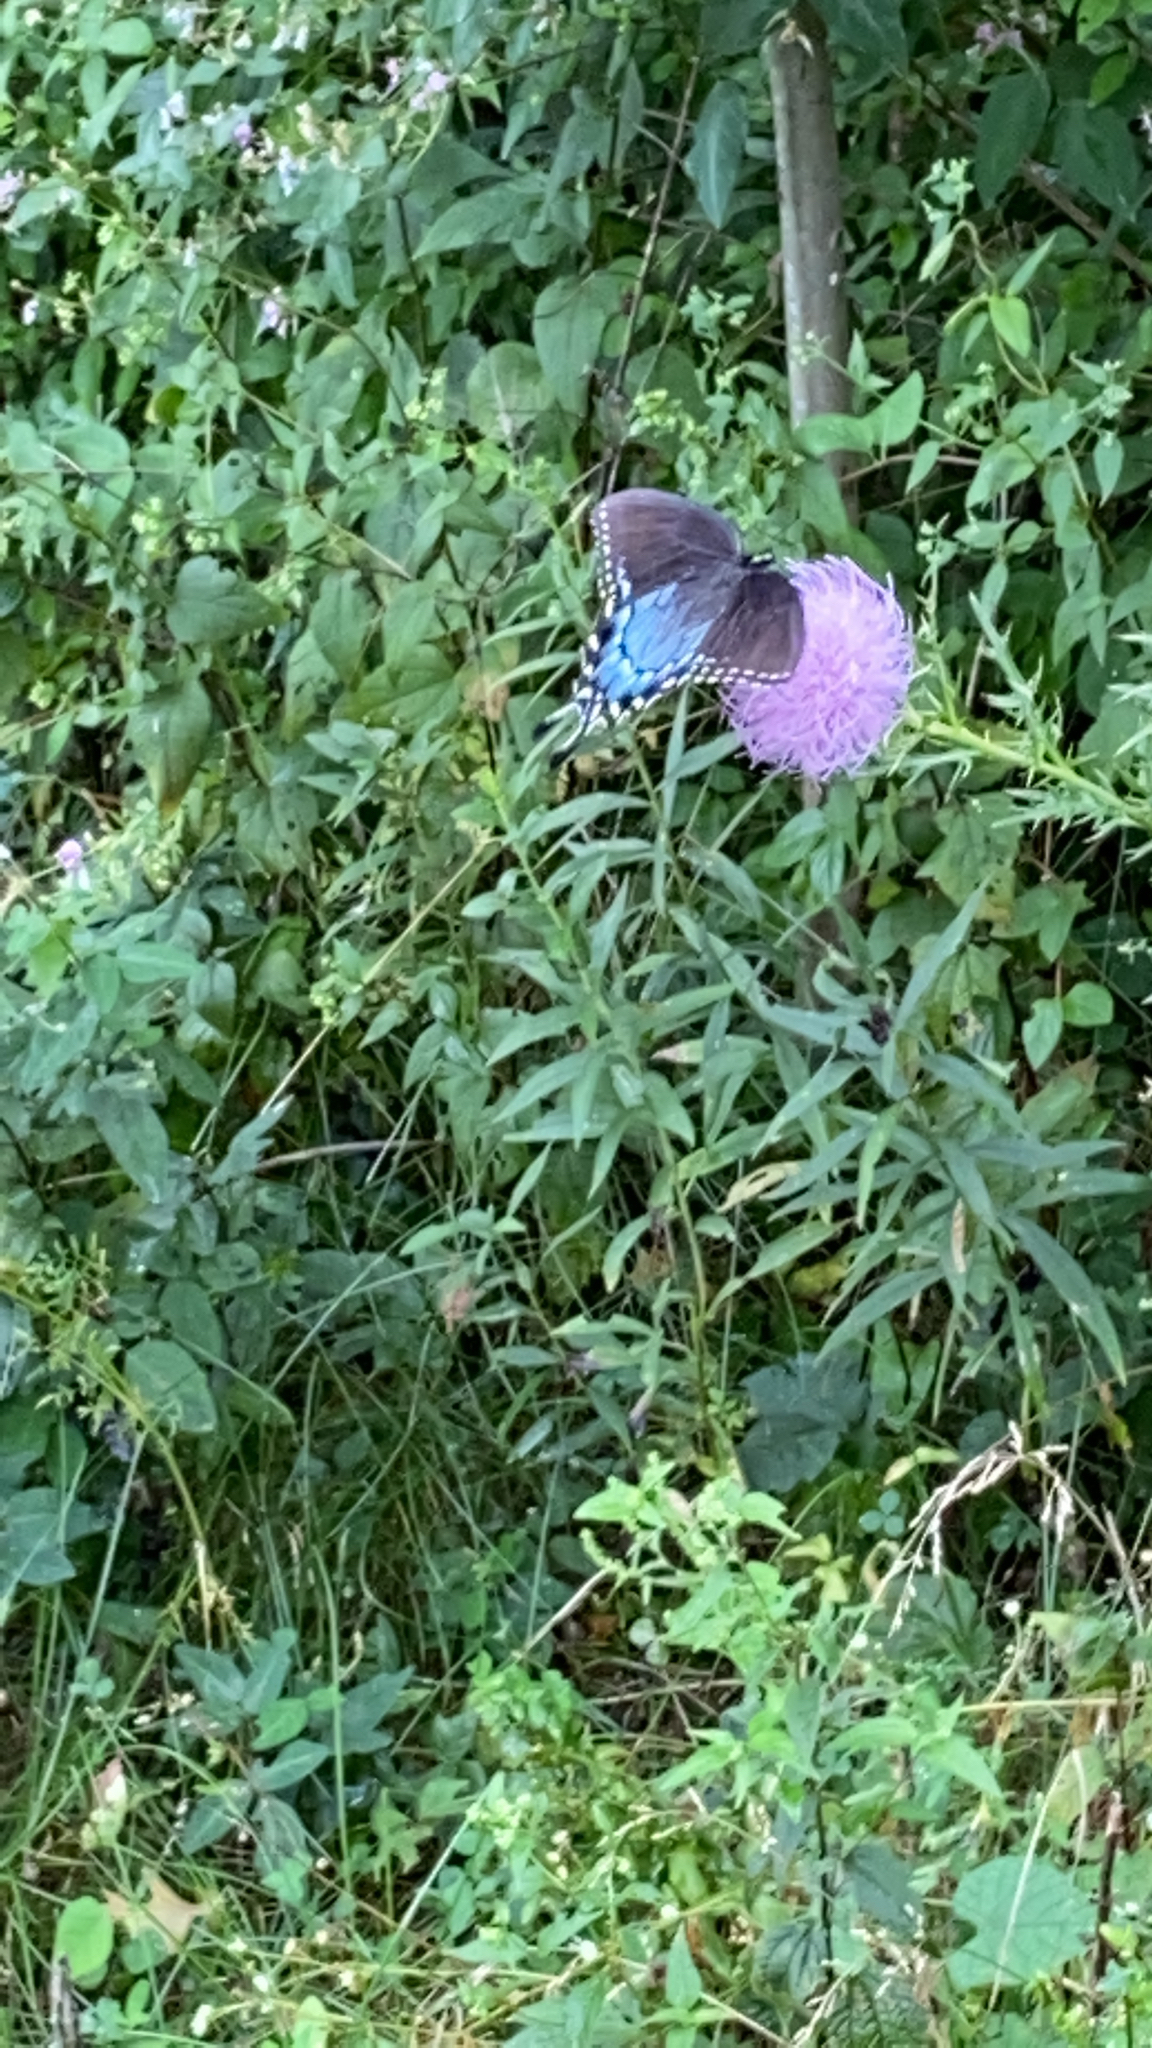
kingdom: Animalia
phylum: Arthropoda
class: Insecta
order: Lepidoptera
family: Papilionidae
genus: Papilio
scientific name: Papilio troilus
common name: Spicebush swallowtail
